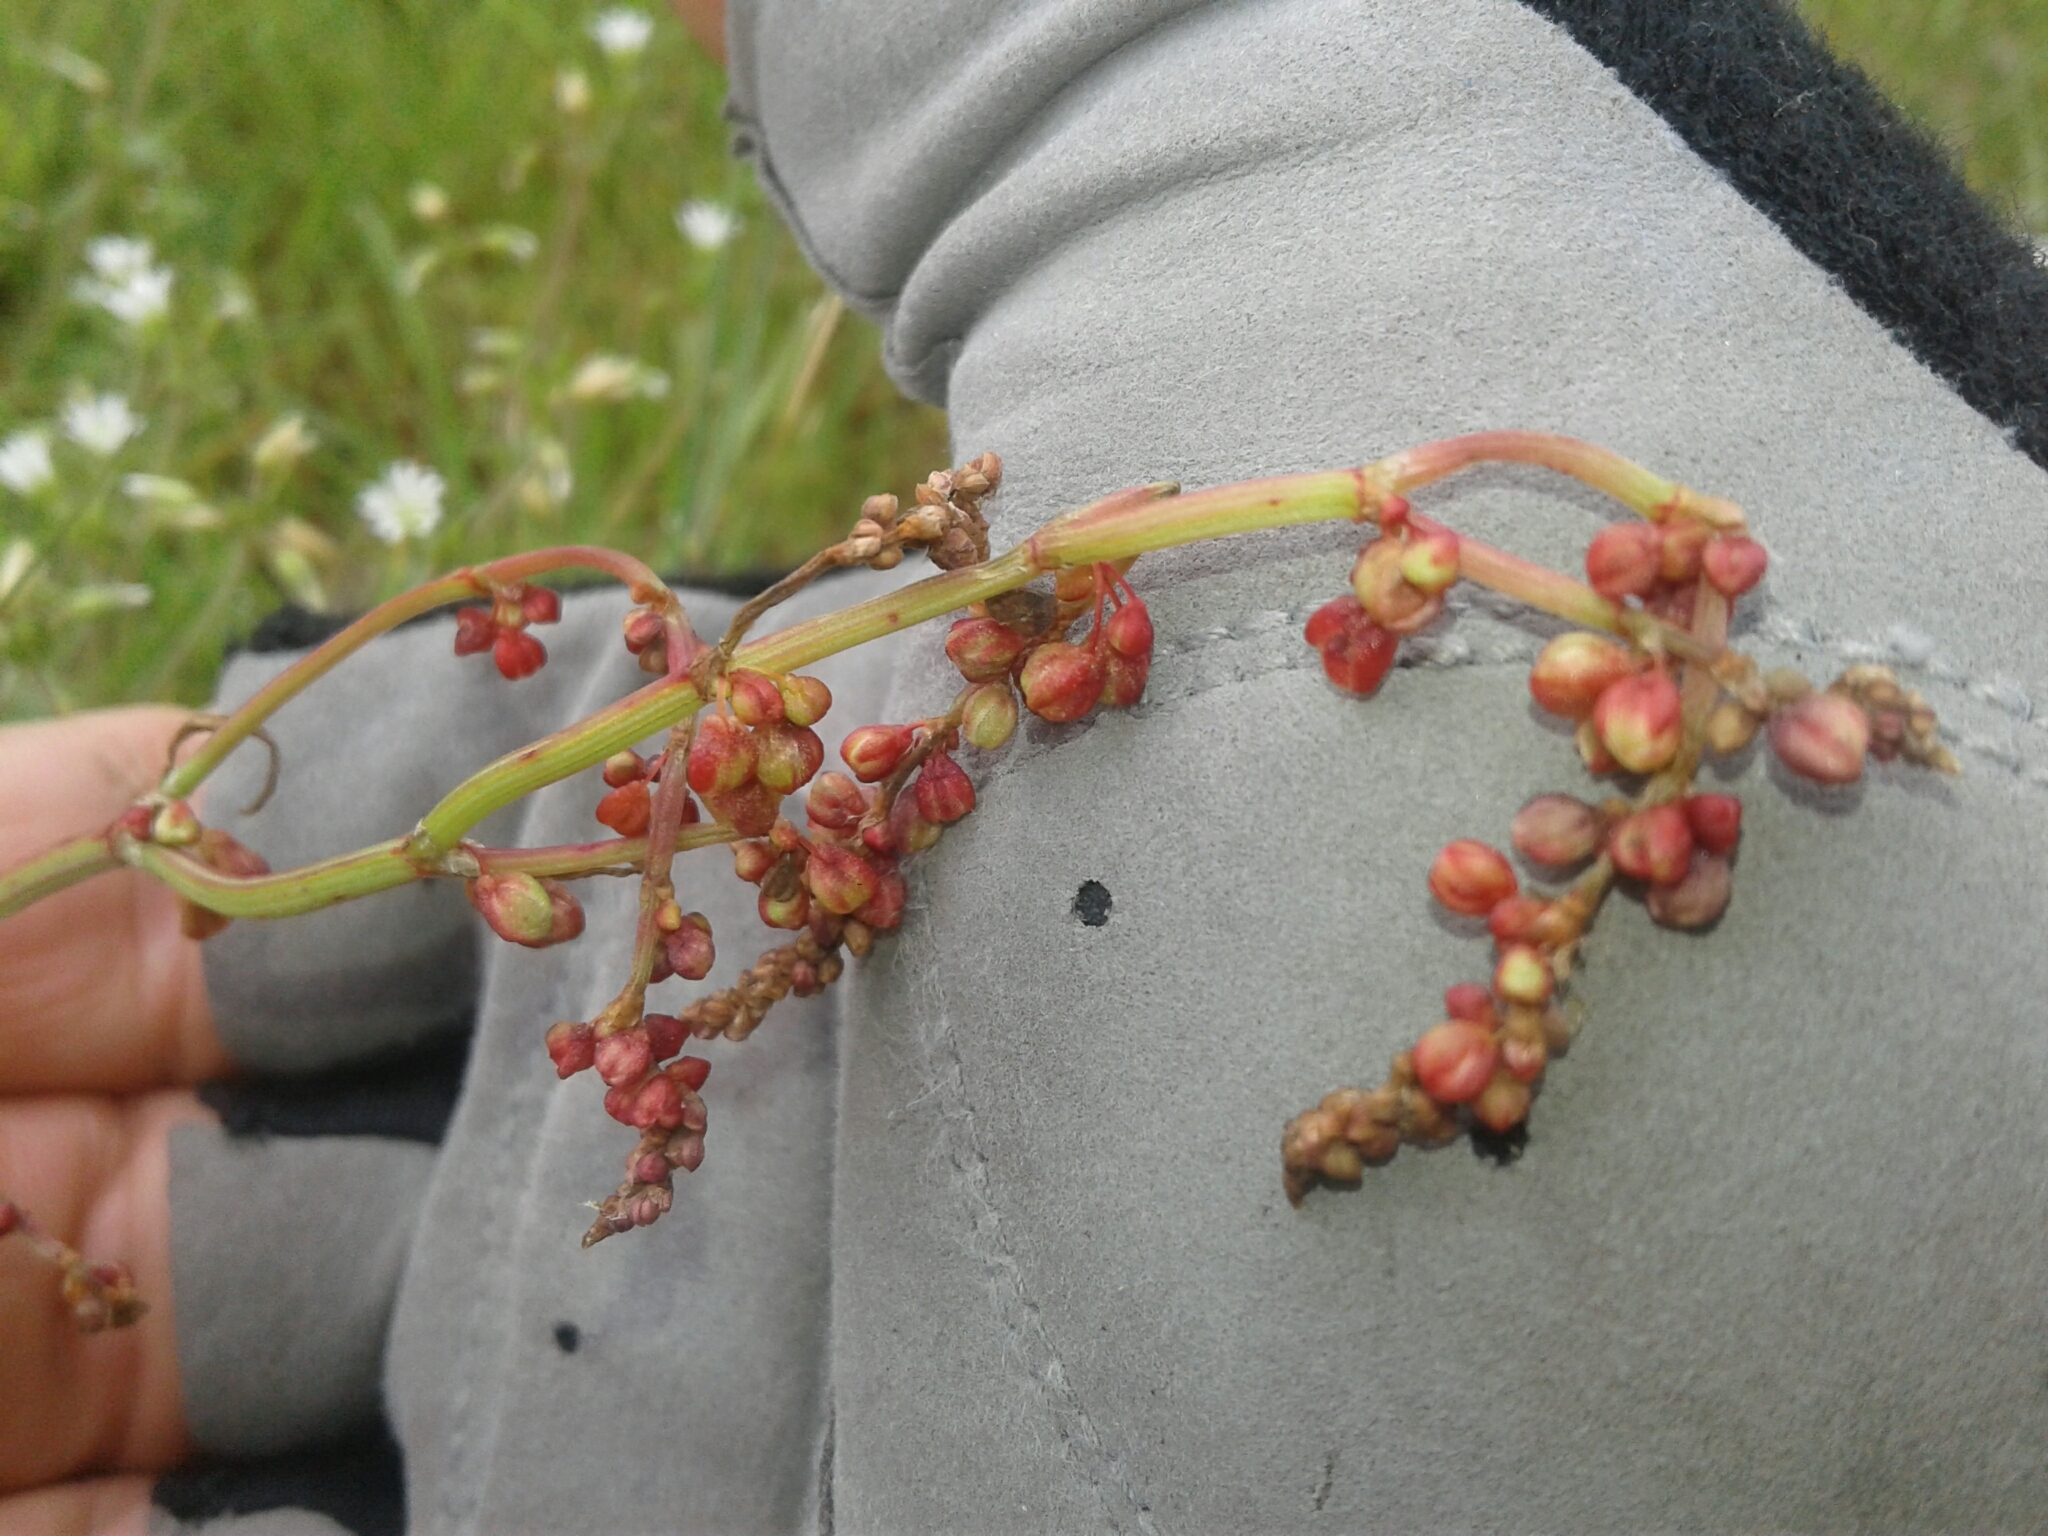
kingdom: Plantae
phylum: Tracheophyta
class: Magnoliopsida
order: Caryophyllales
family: Polygonaceae
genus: Rumex
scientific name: Rumex acetosella
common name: Common sheep sorrel
